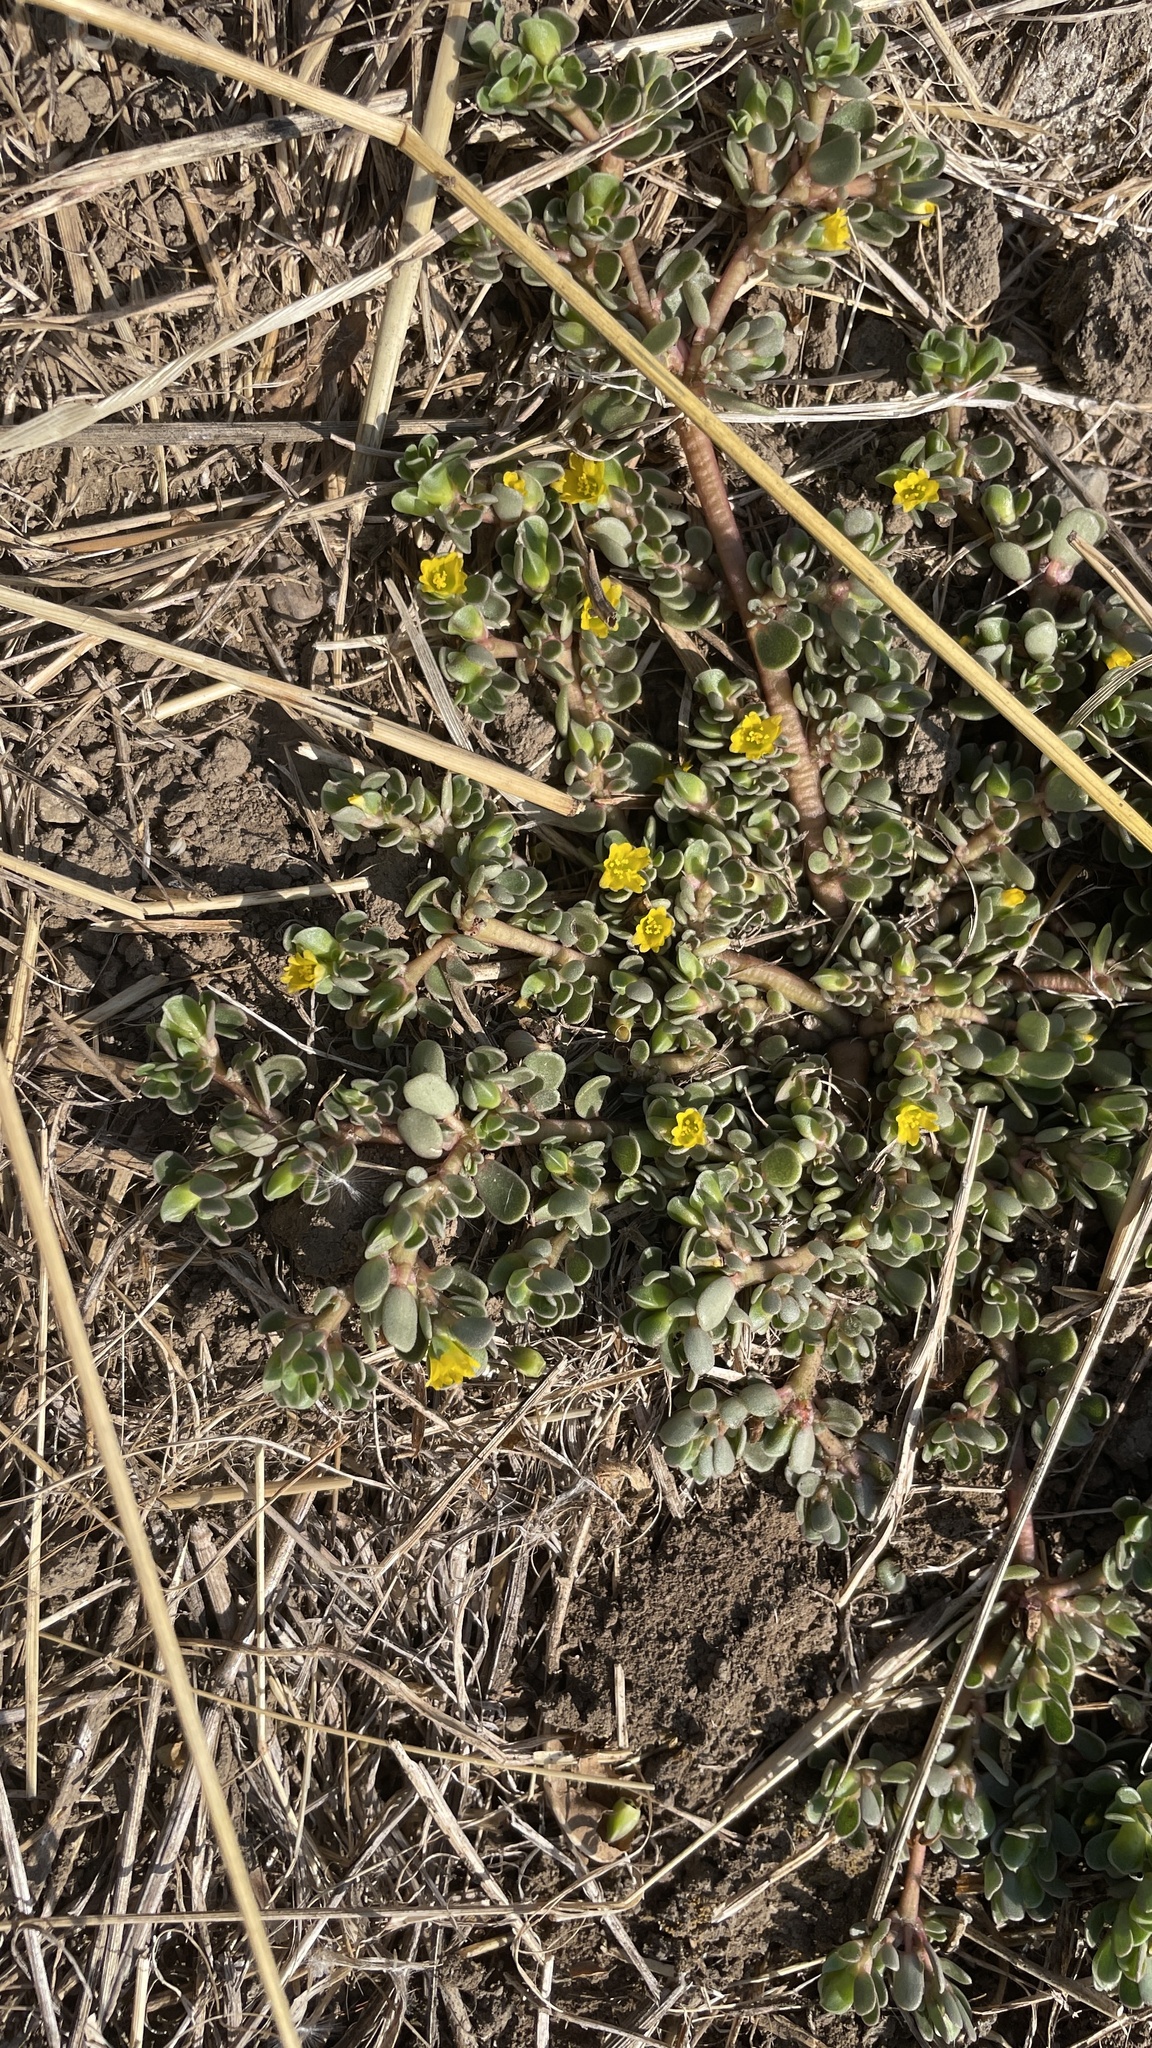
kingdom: Plantae
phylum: Tracheophyta
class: Magnoliopsida
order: Caryophyllales
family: Portulacaceae
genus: Portulaca
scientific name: Portulaca oleracea
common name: Common purslane
